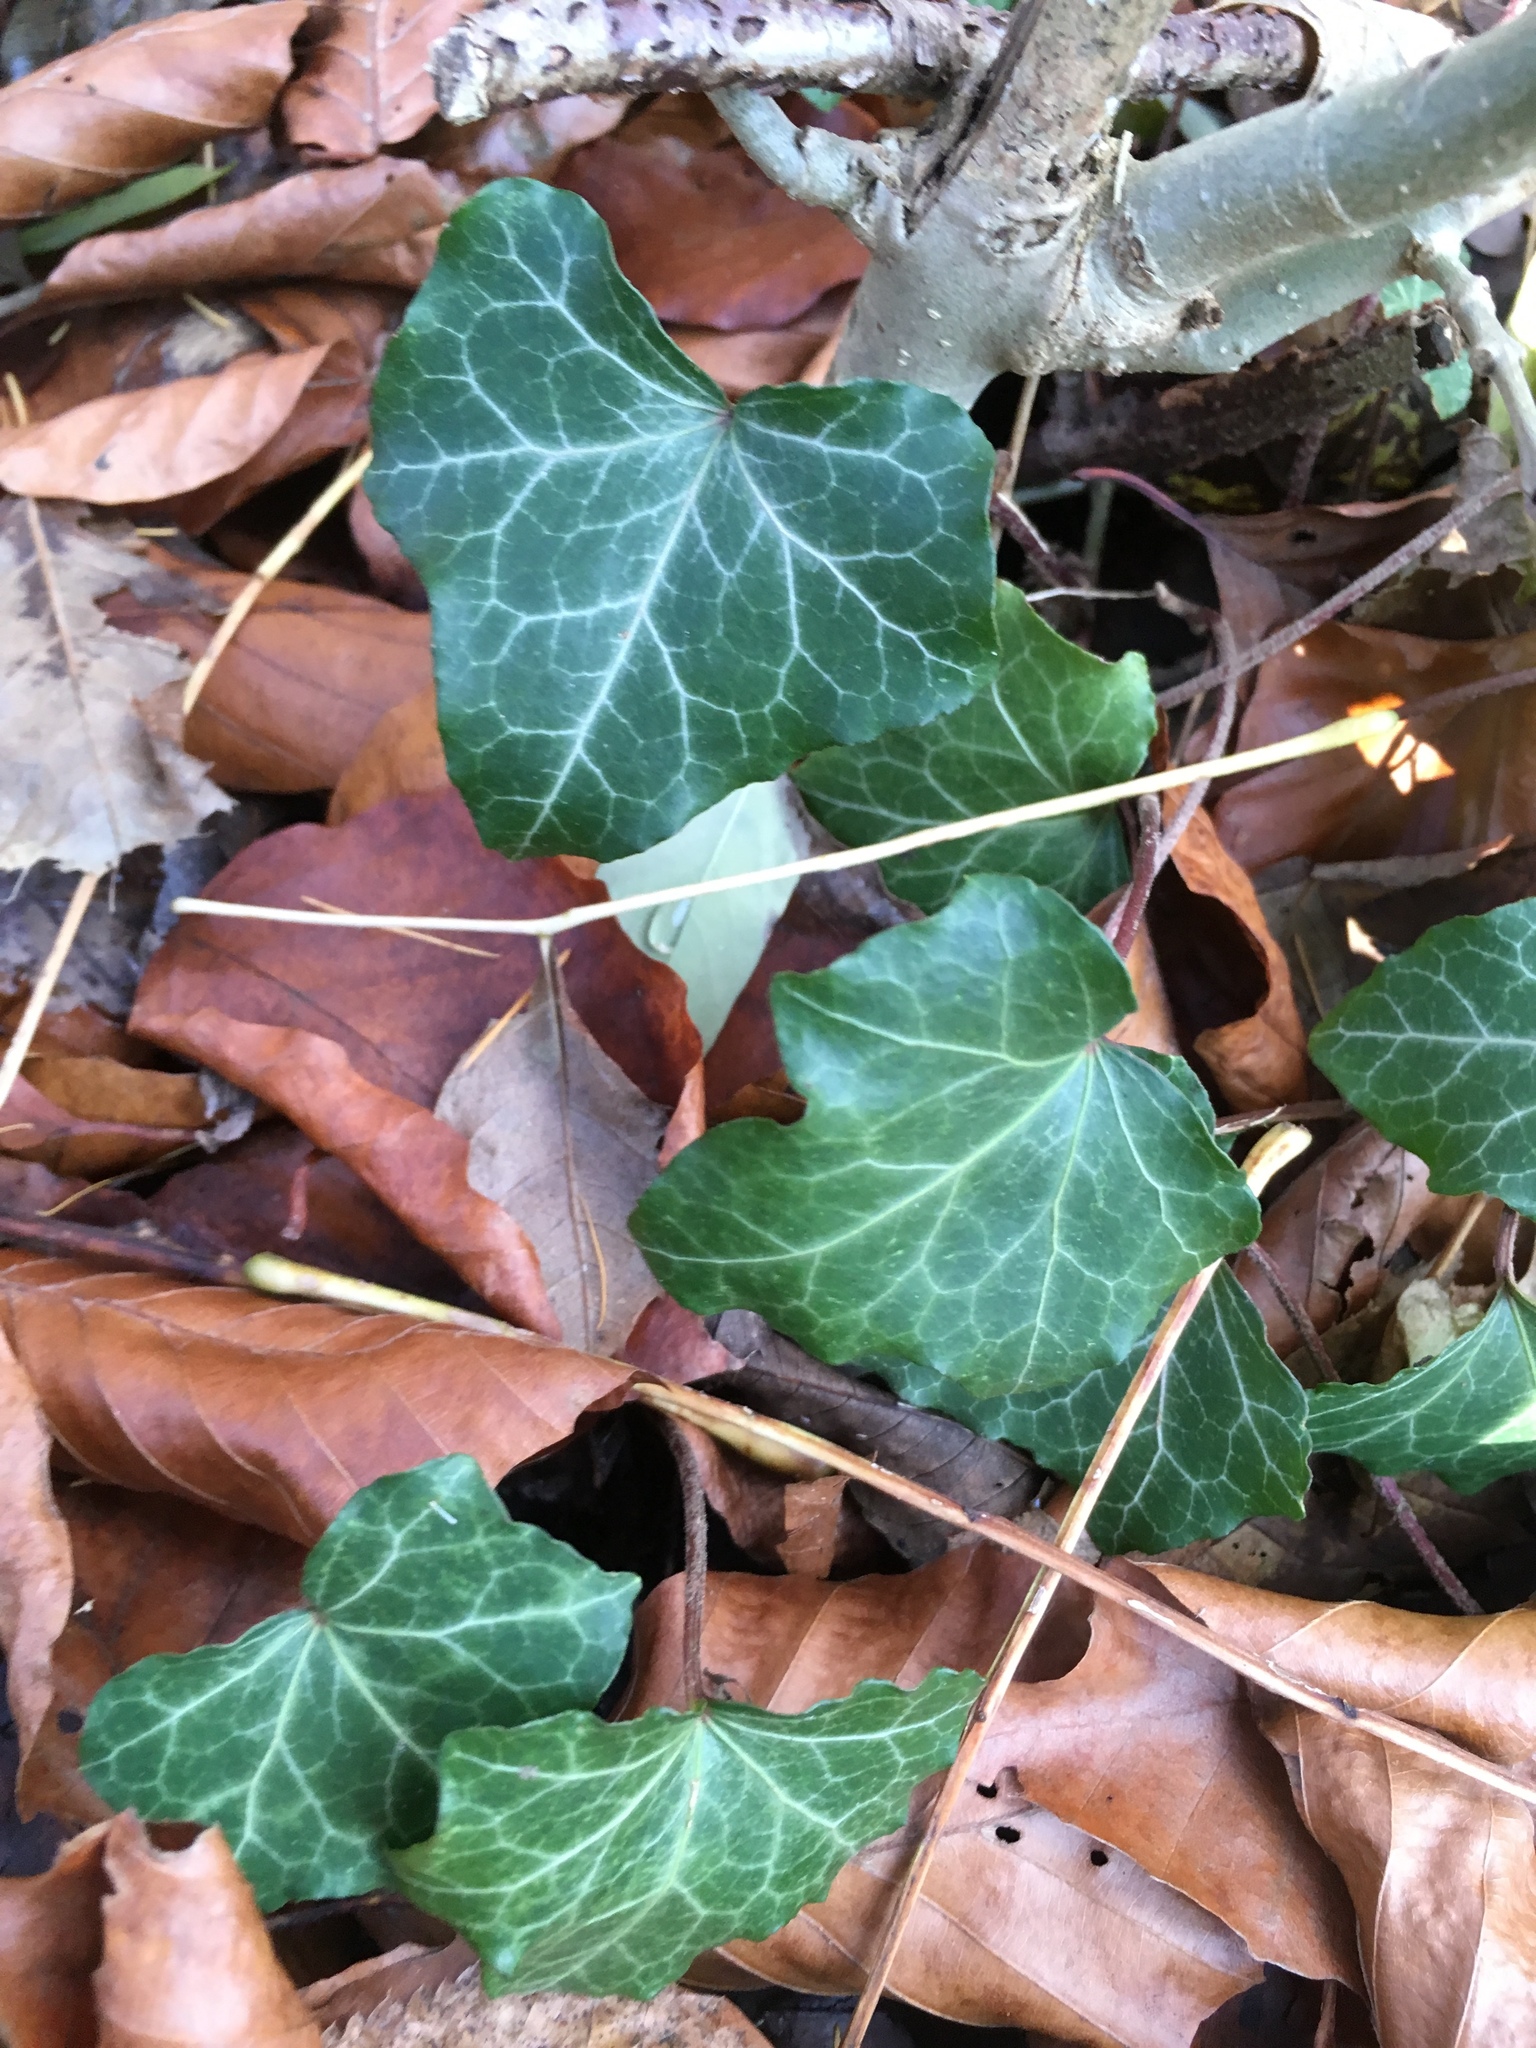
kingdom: Plantae
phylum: Tracheophyta
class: Magnoliopsida
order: Apiales
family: Araliaceae
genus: Hedera
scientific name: Hedera helix
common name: Ivy
